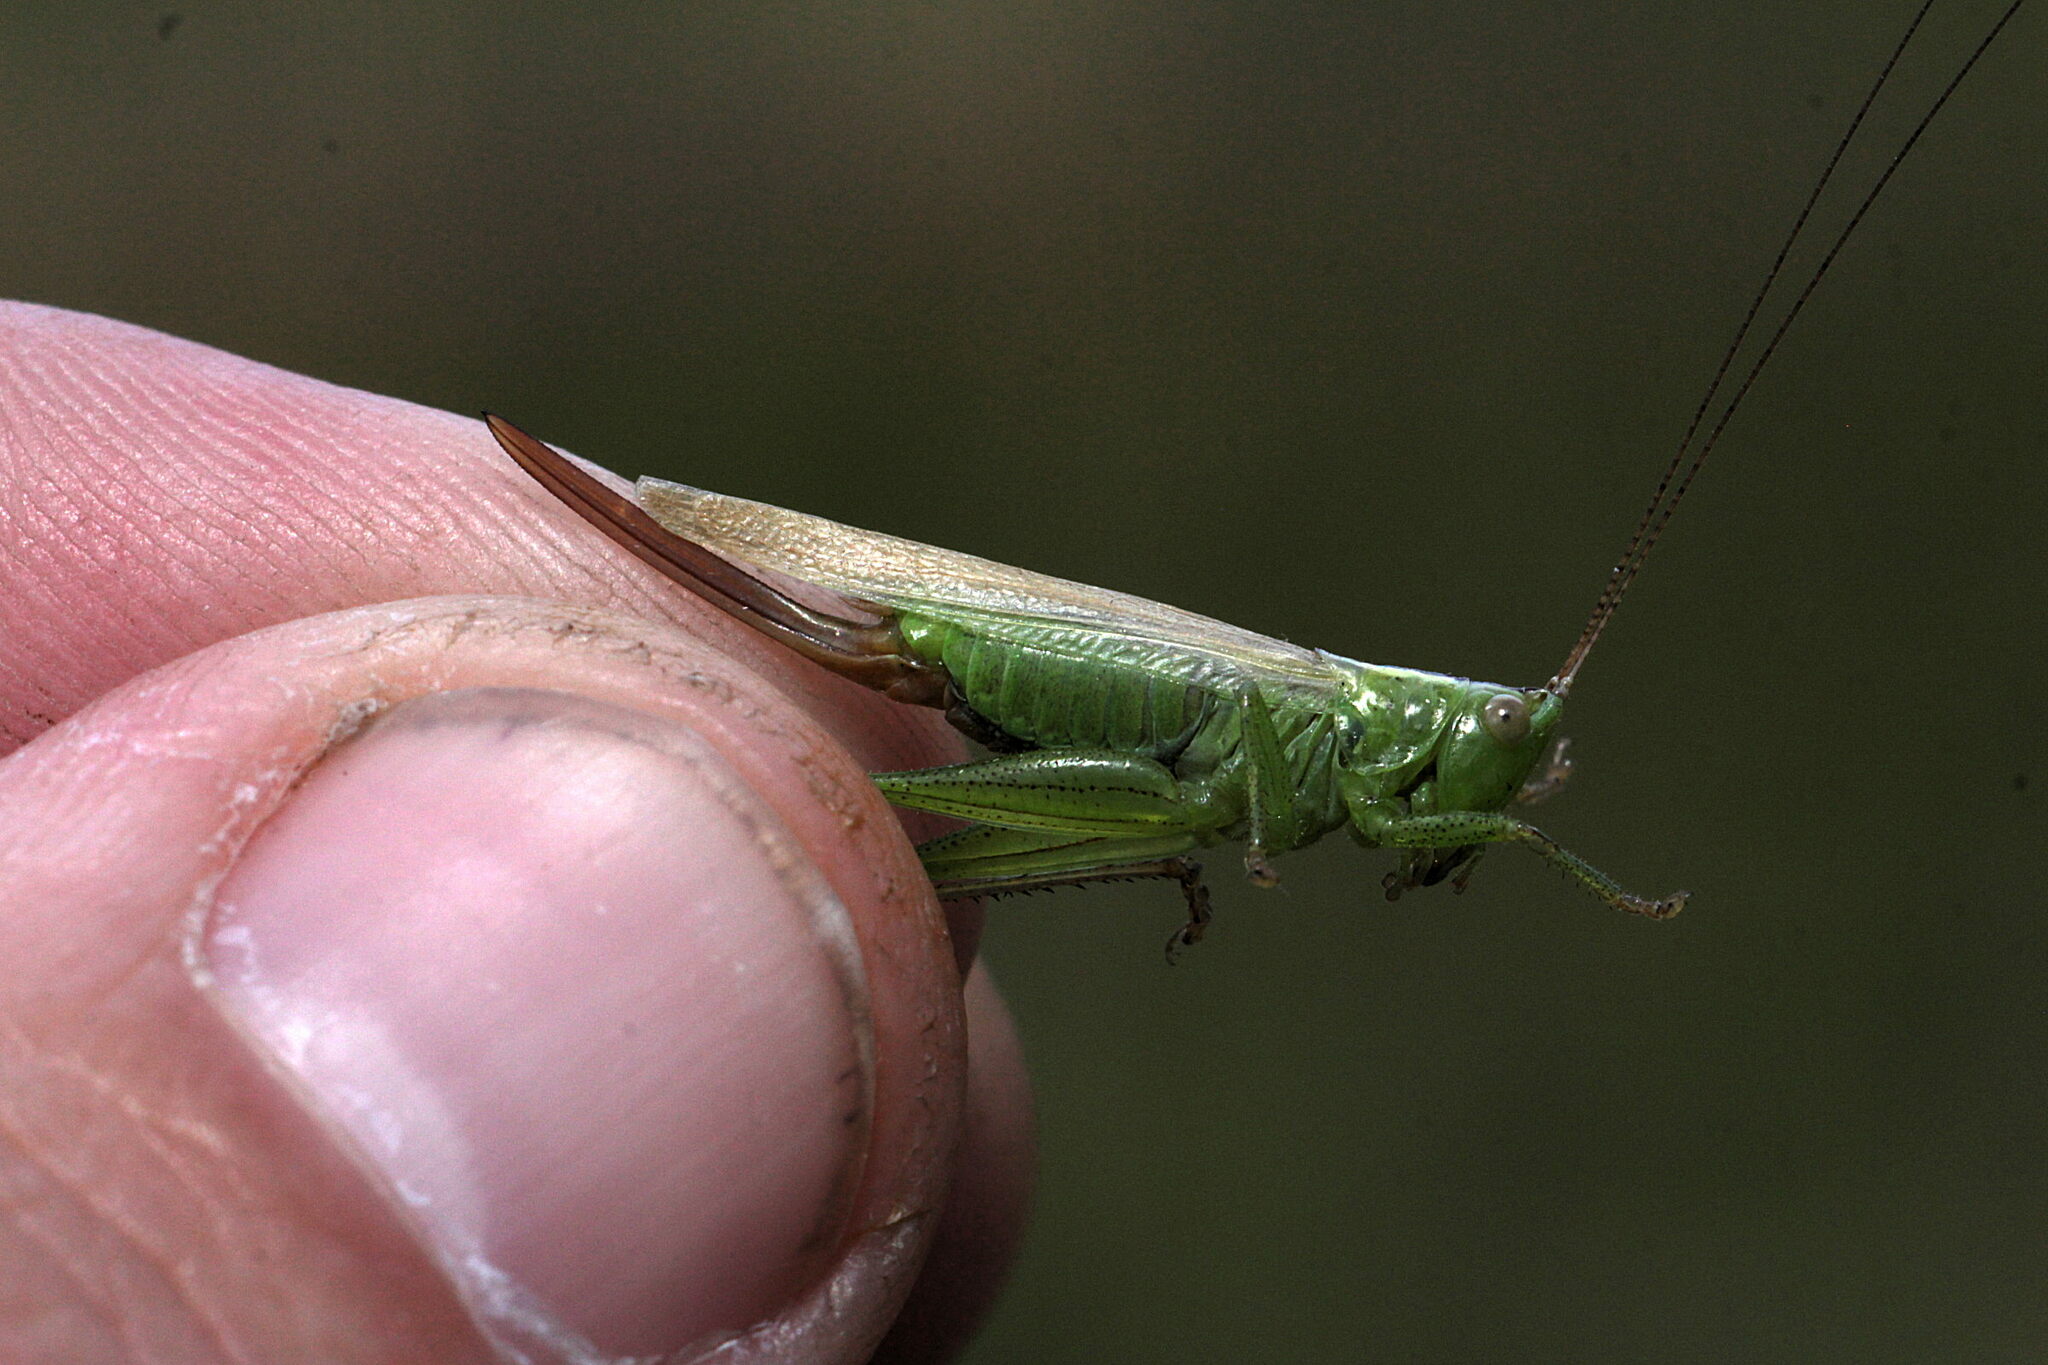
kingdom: Animalia
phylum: Arthropoda
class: Insecta
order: Orthoptera
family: Tettigoniidae
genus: Conocephalus
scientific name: Conocephalus fuscus
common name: Long-winged conehead
